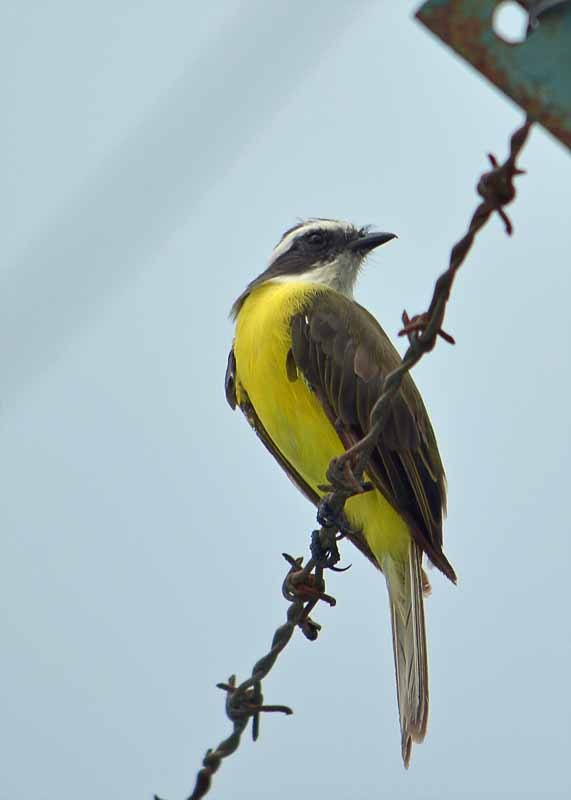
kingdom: Animalia
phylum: Chordata
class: Aves
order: Passeriformes
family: Tyrannidae
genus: Myiozetetes
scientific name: Myiozetetes similis
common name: Social flycatcher
